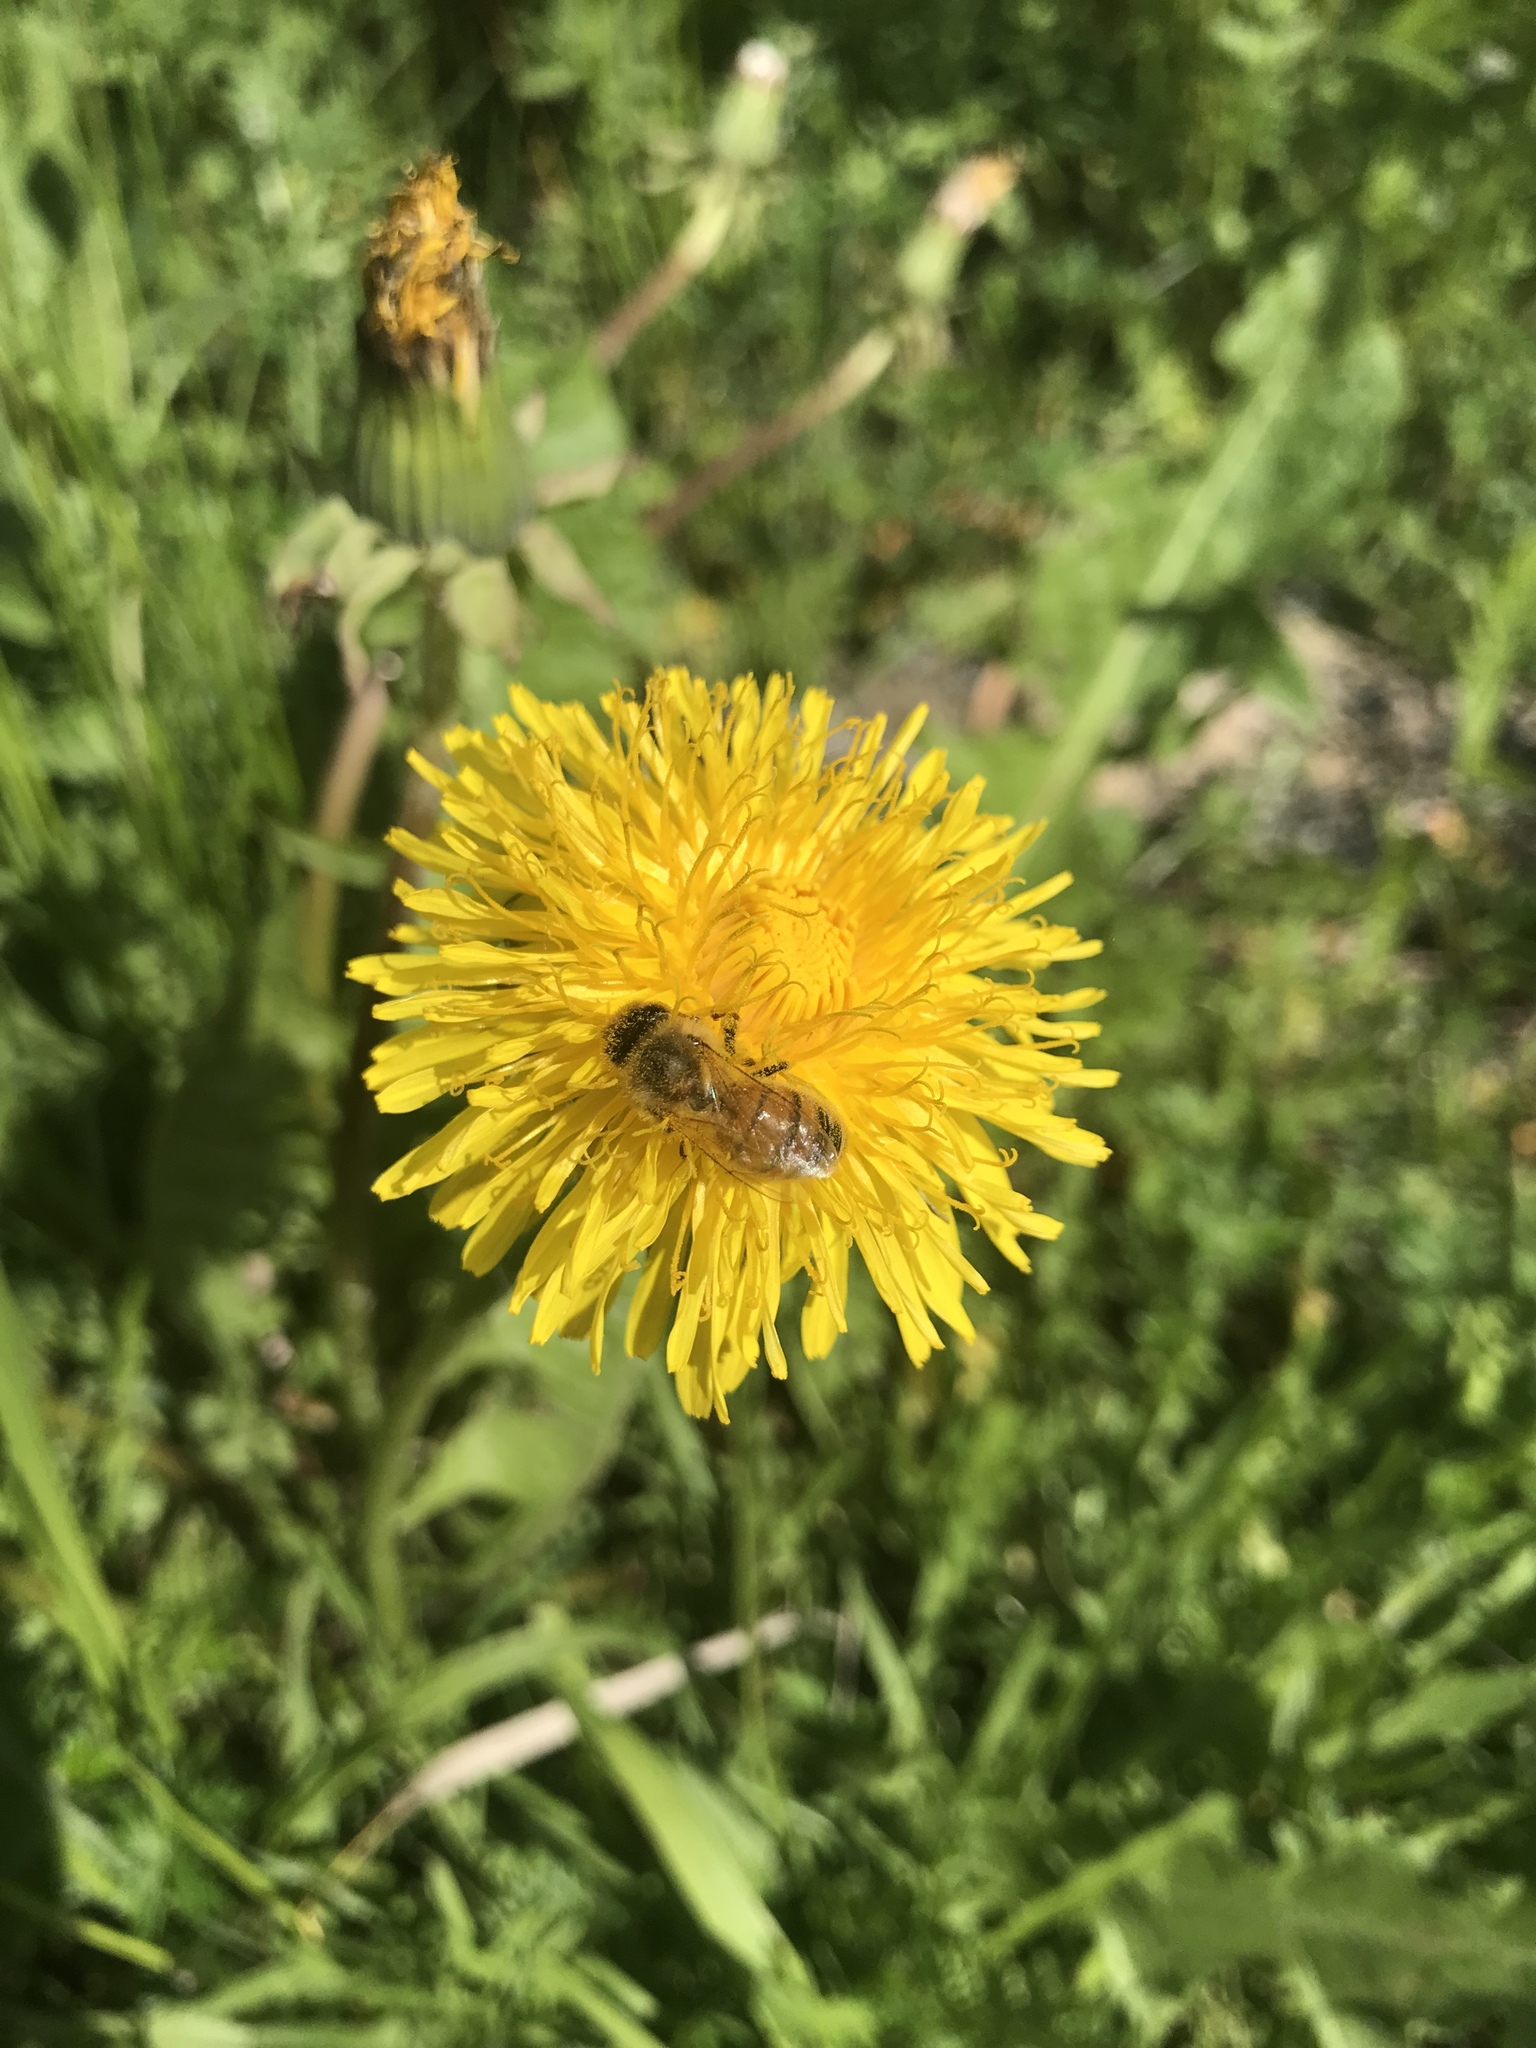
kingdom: Animalia
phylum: Arthropoda
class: Insecta
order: Hymenoptera
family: Apidae
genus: Apis
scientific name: Apis mellifera
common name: Honey bee
